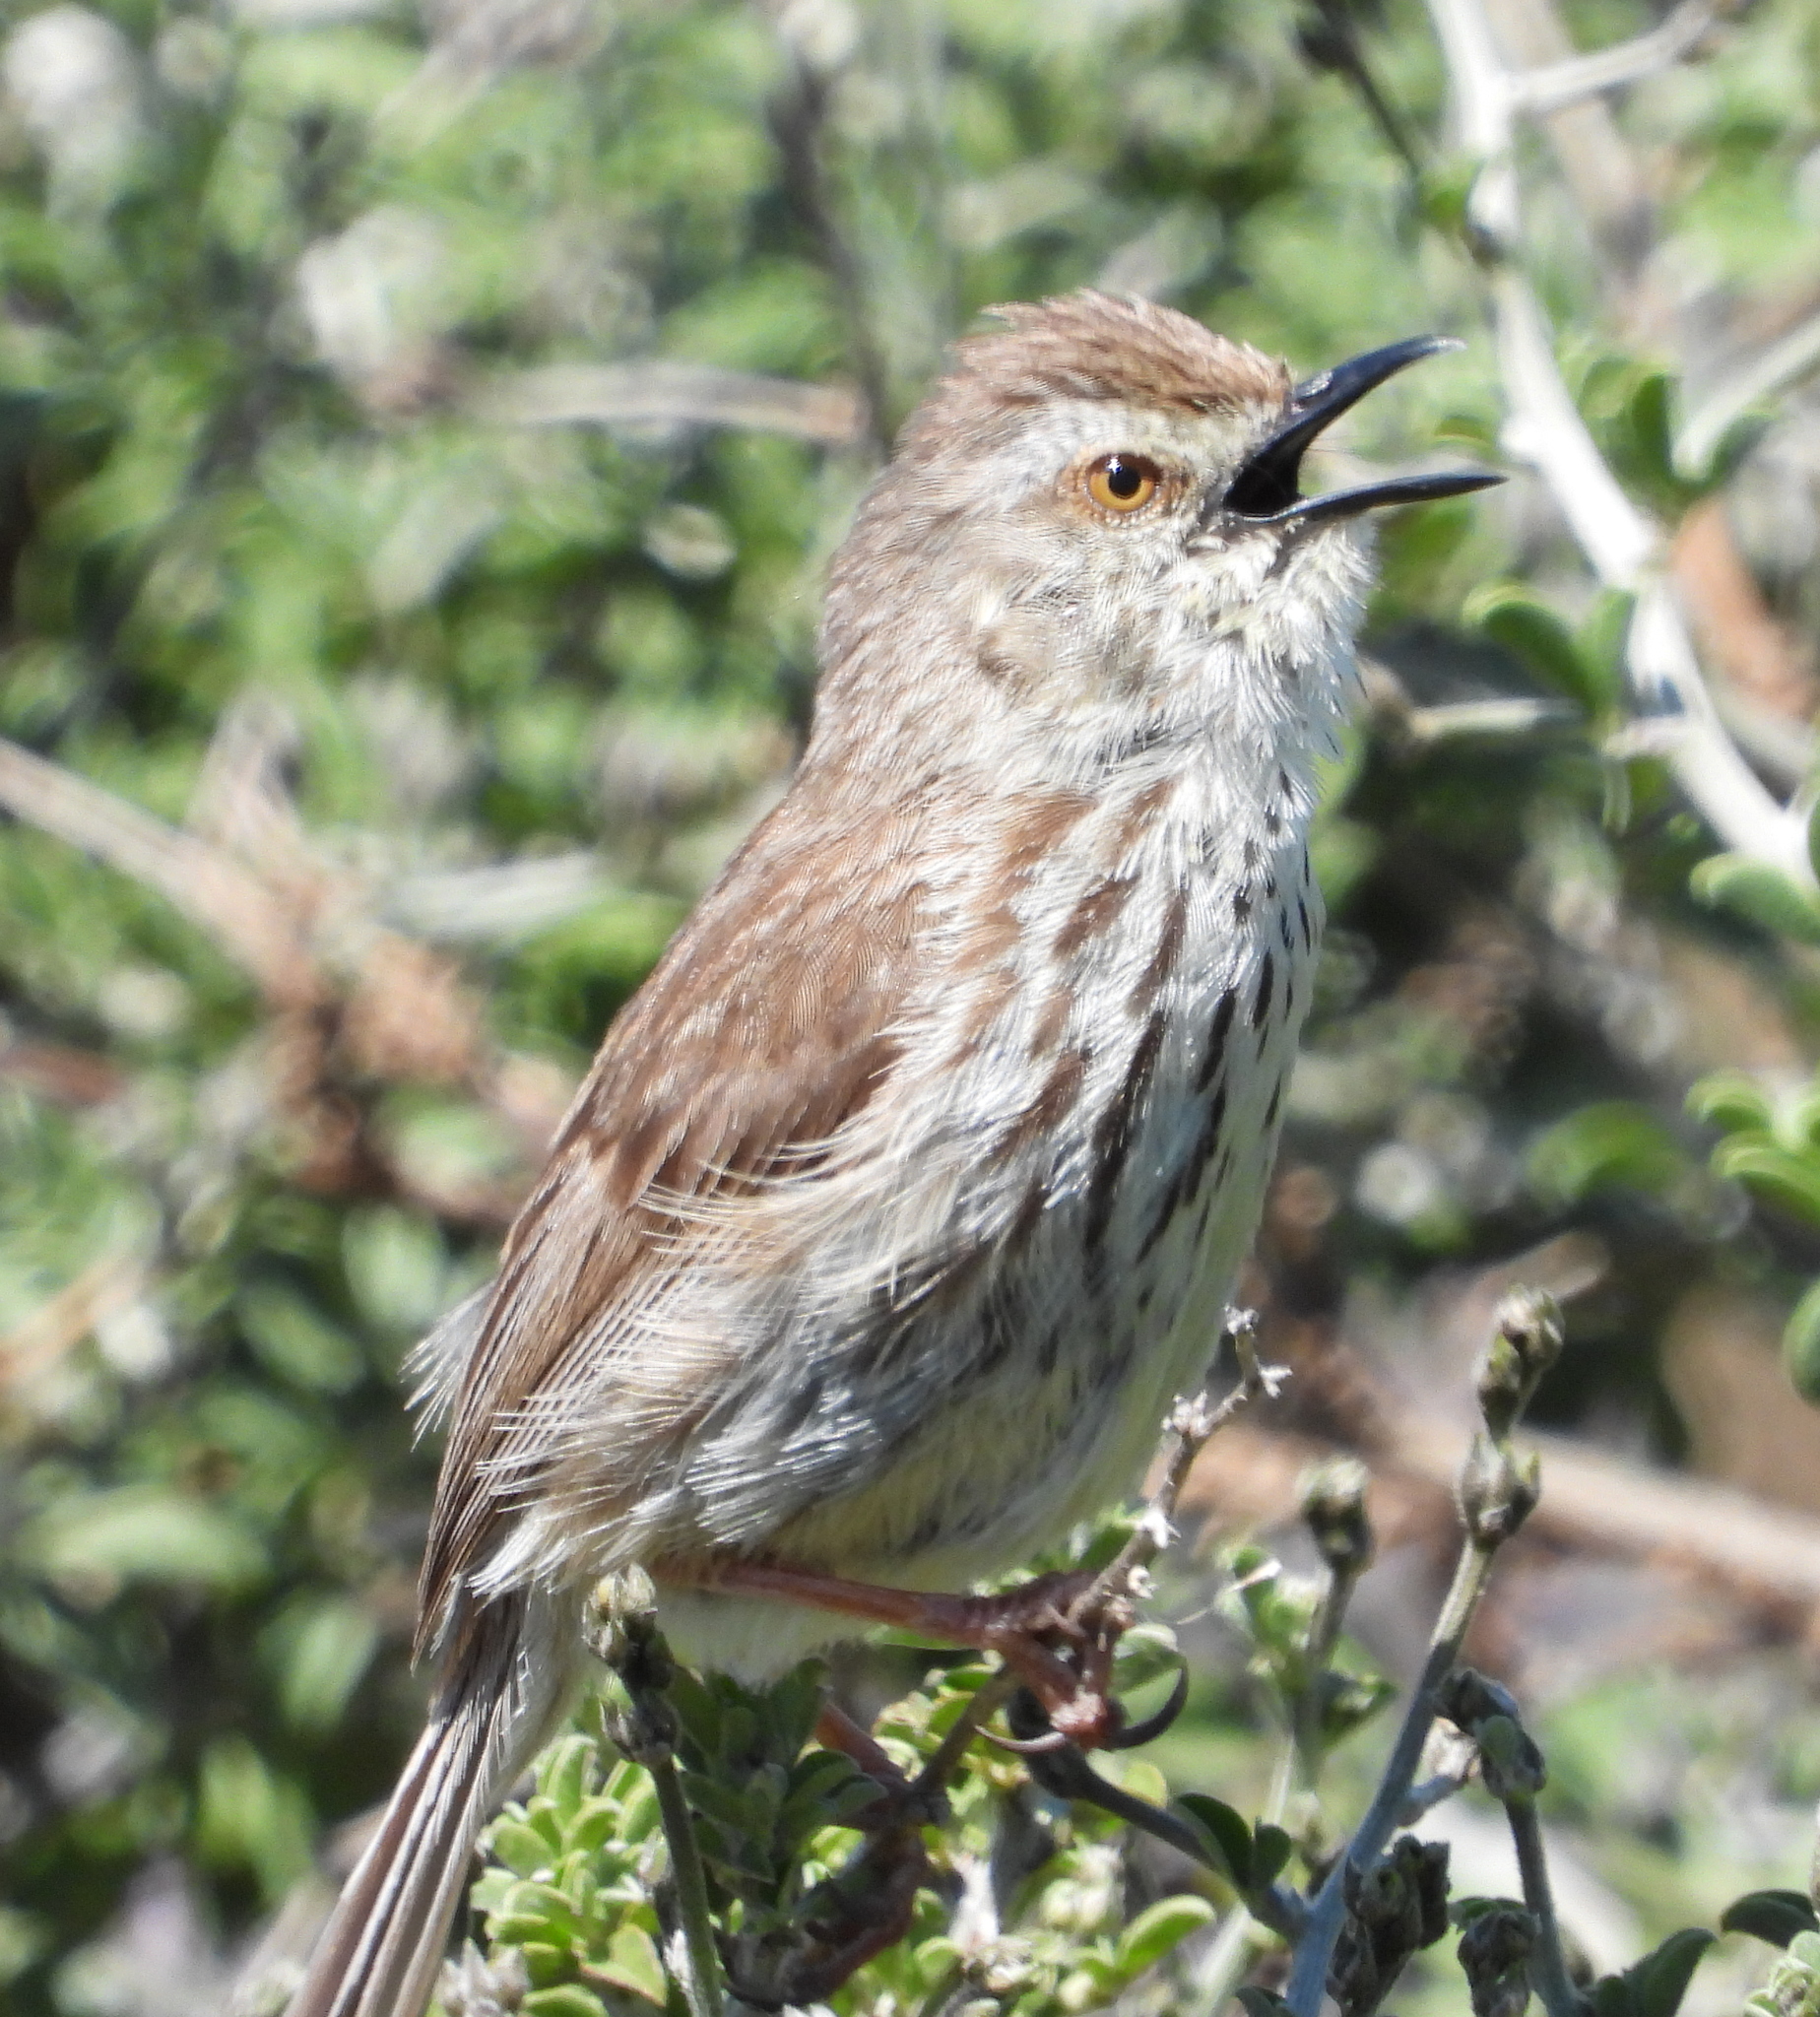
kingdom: Animalia
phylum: Chordata
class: Aves
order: Passeriformes
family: Cisticolidae
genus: Prinia
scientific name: Prinia maculosa
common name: Karoo prinia
